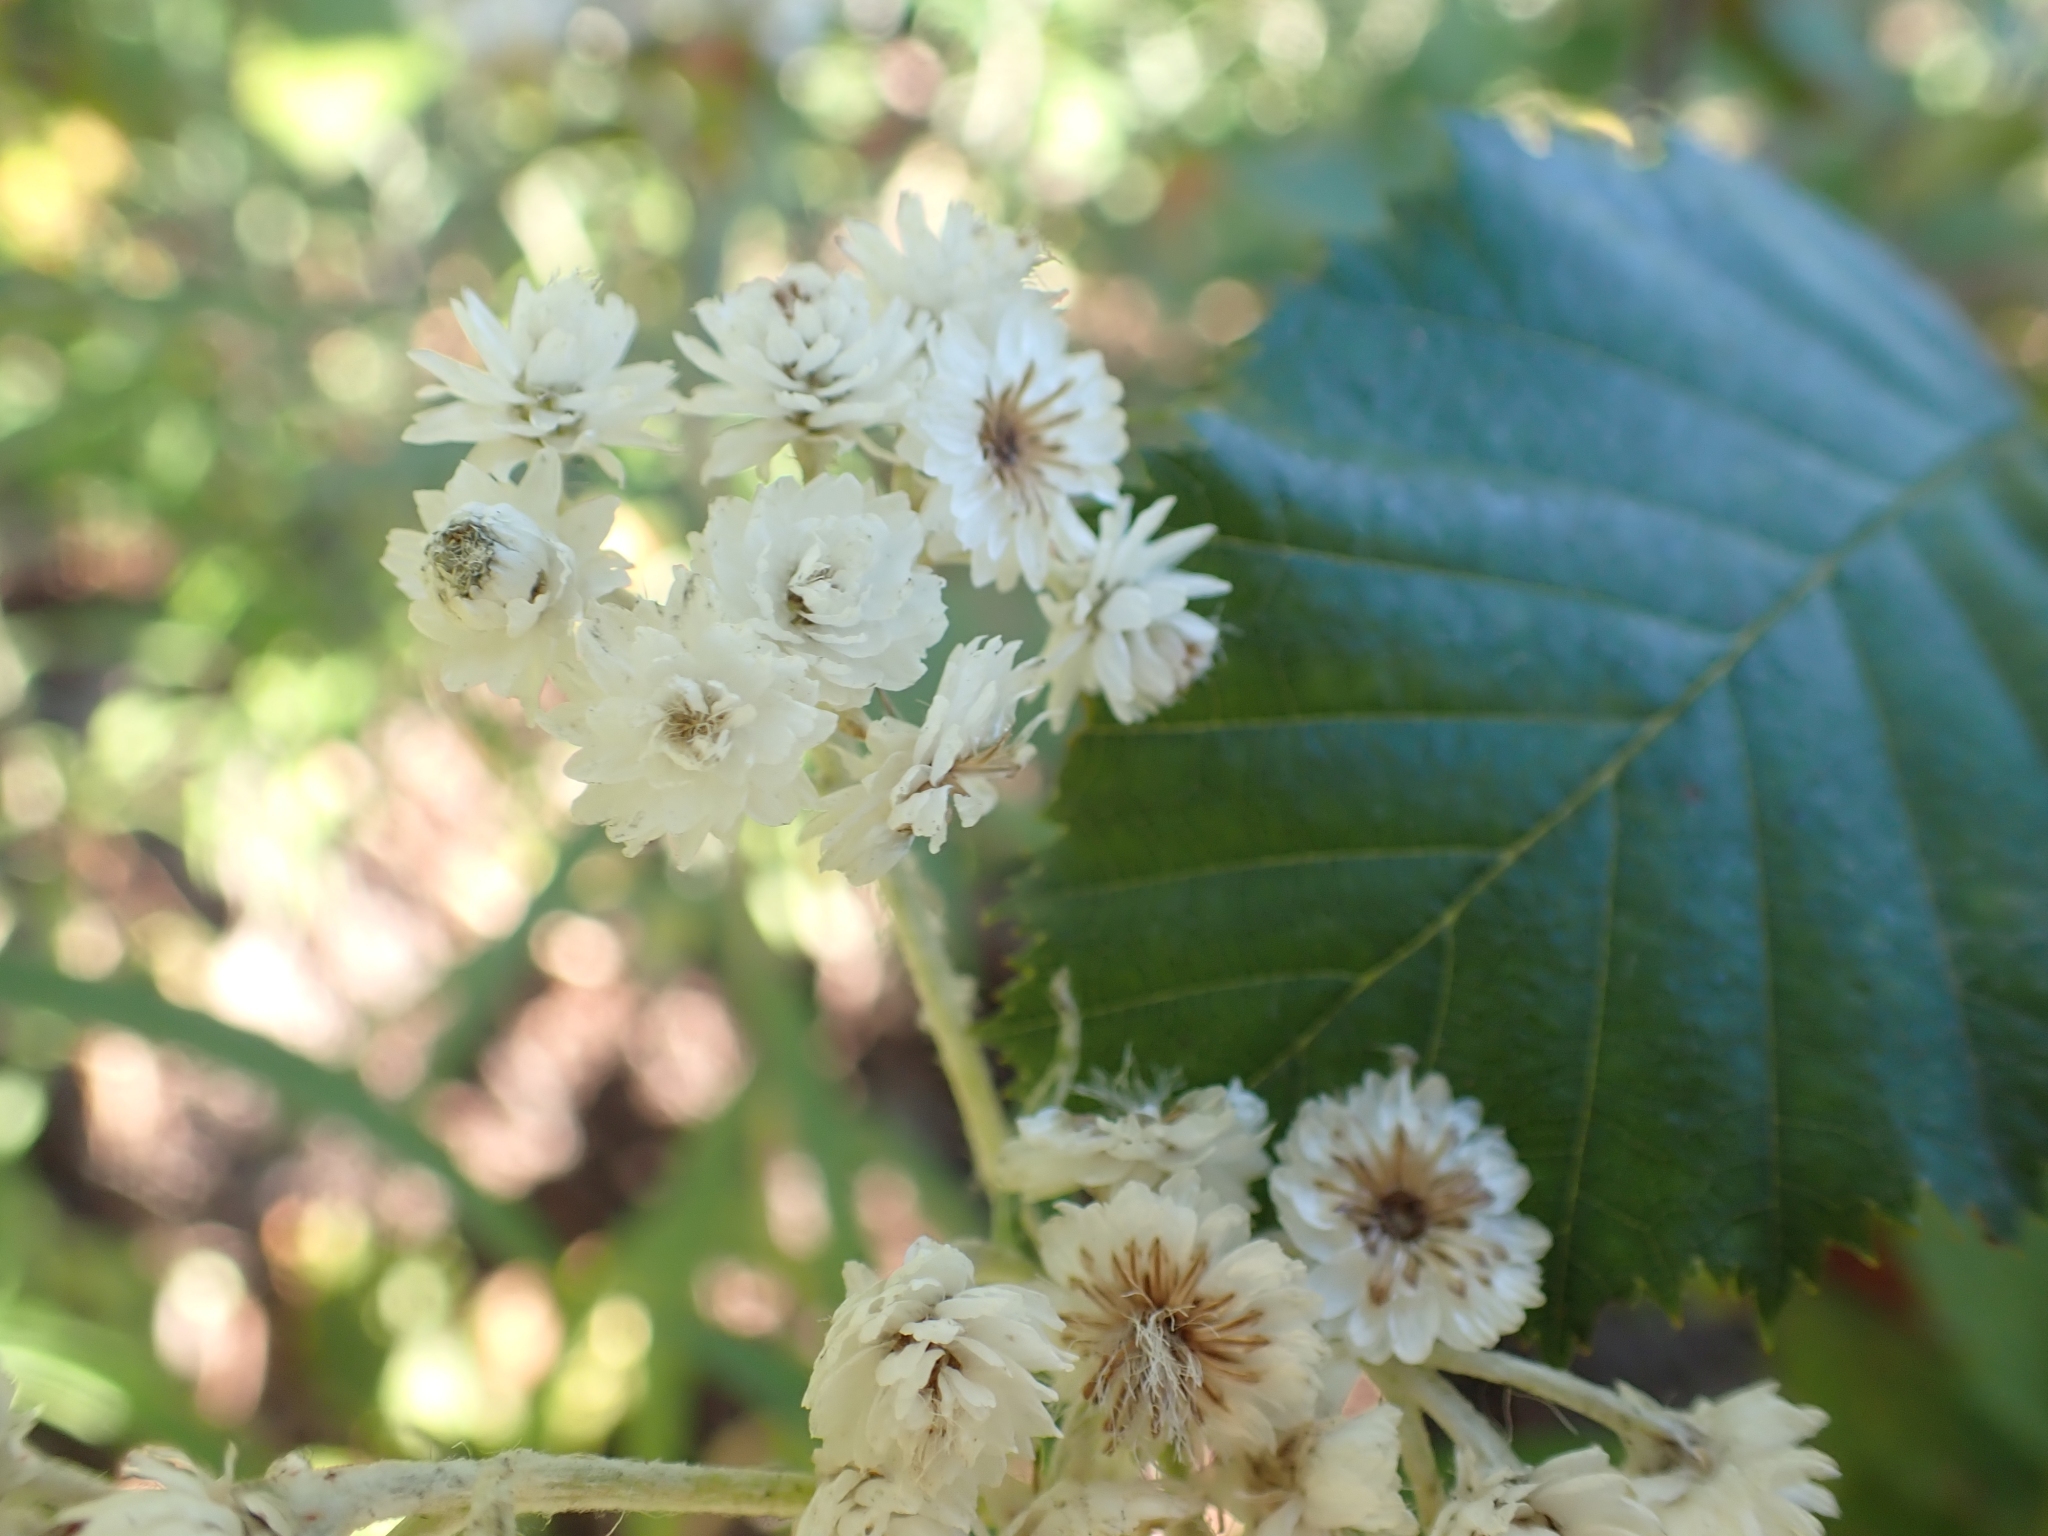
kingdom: Plantae
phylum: Tracheophyta
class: Magnoliopsida
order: Asterales
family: Asteraceae
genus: Anaphalis
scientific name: Anaphalis margaritacea
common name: Pearly everlasting
